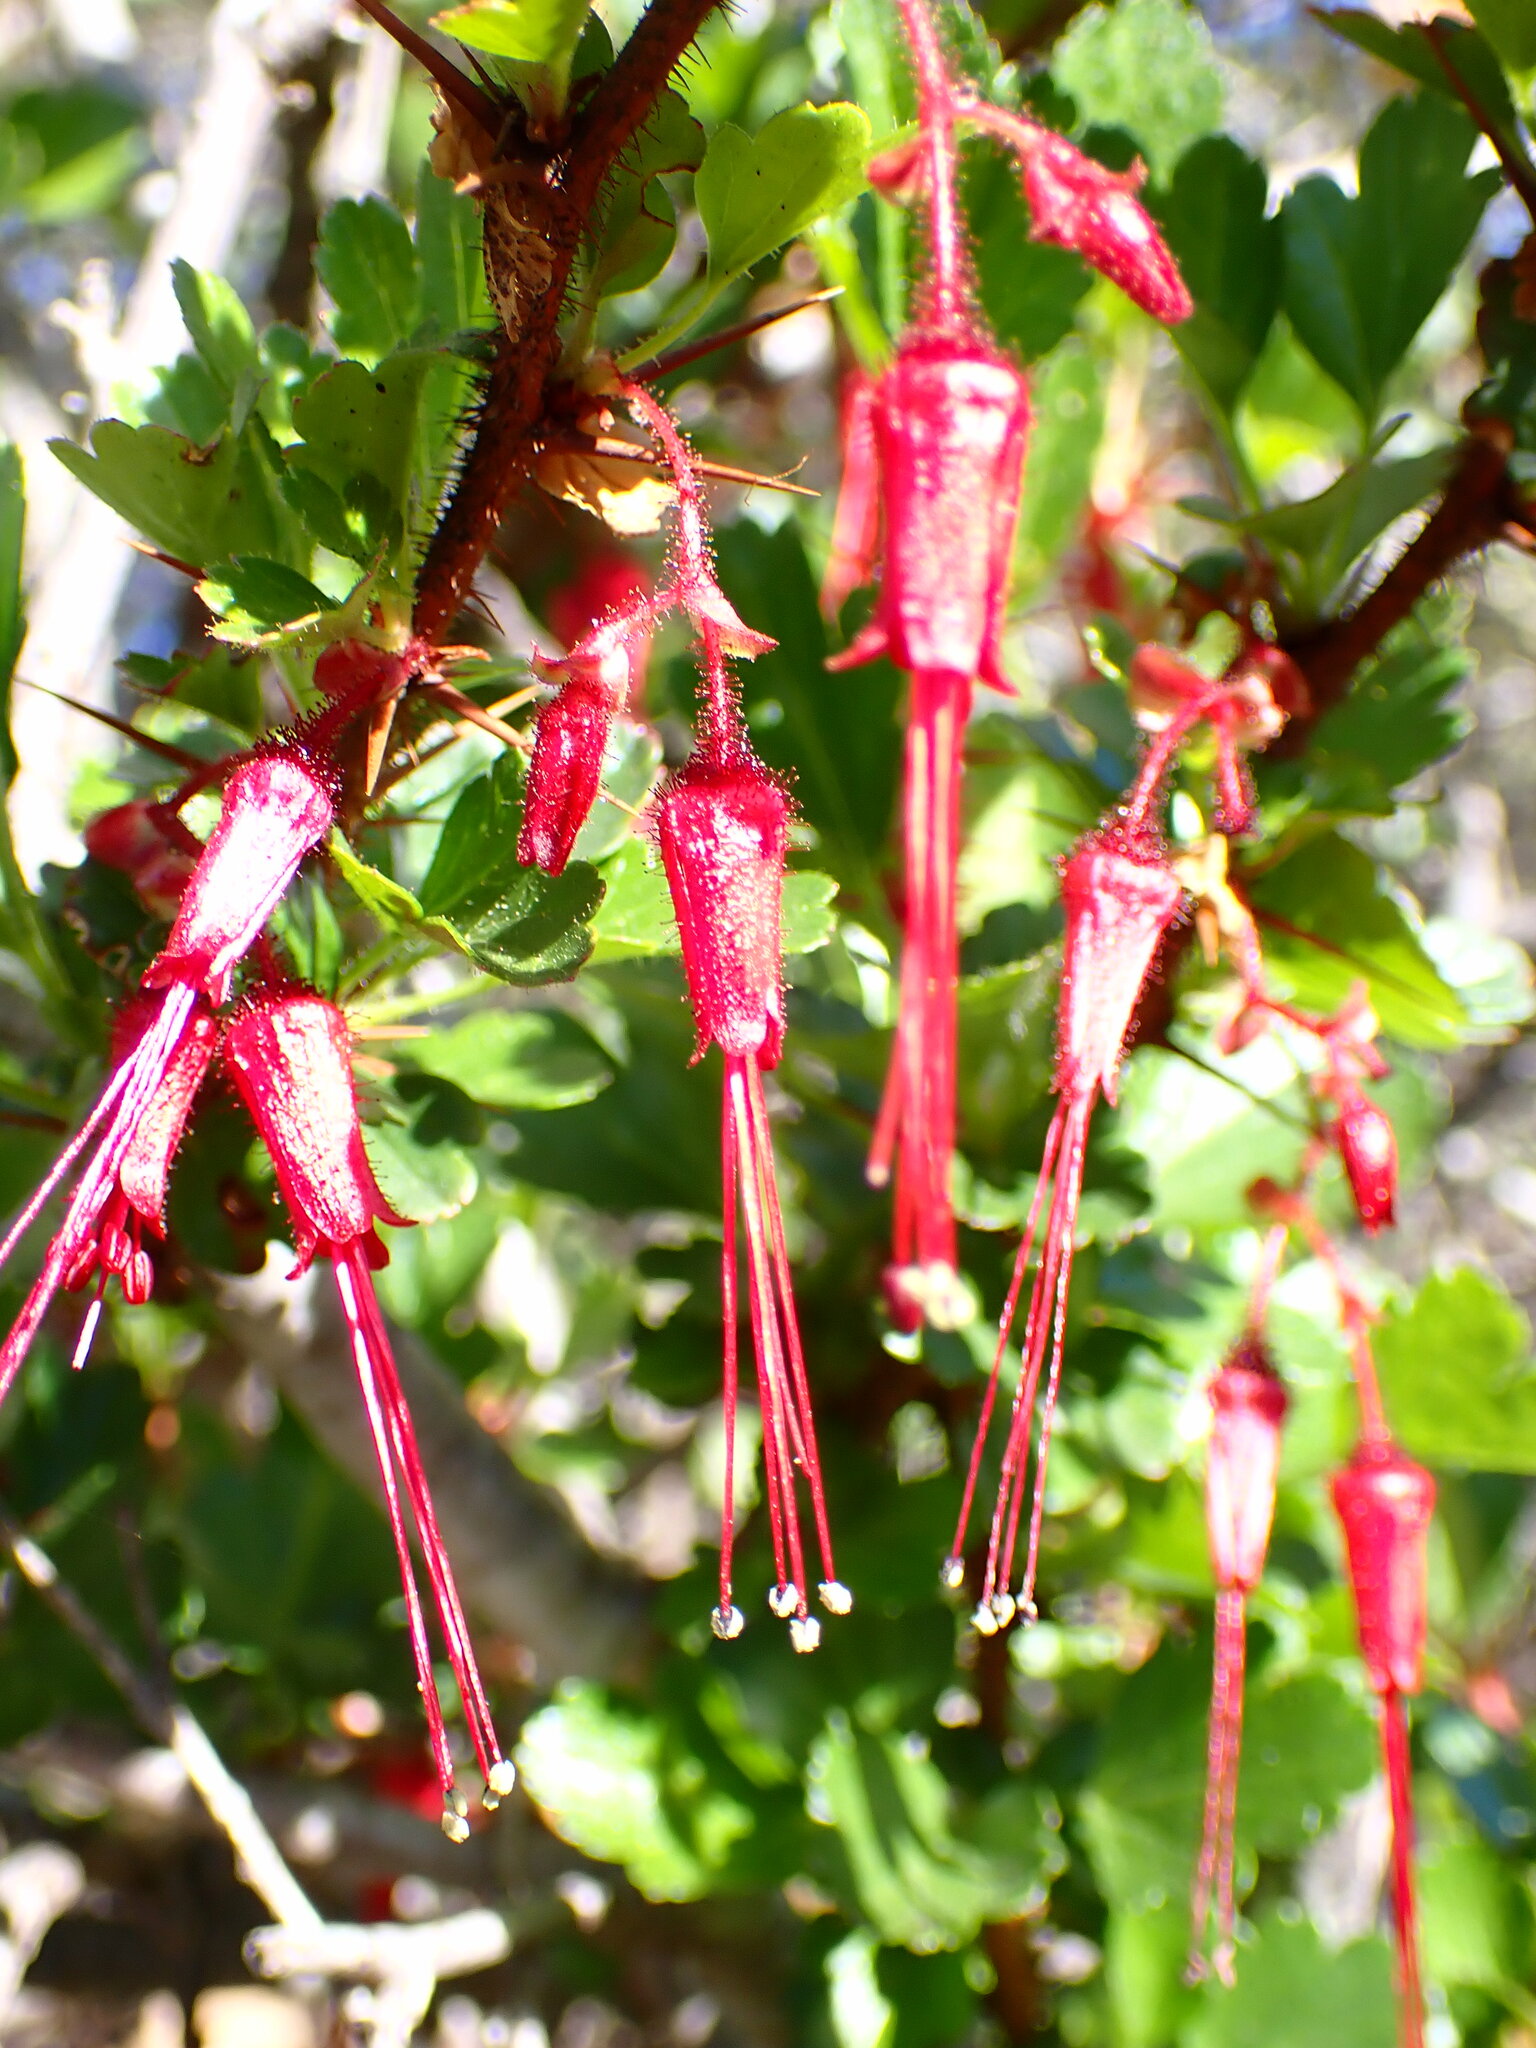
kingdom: Plantae
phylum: Tracheophyta
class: Magnoliopsida
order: Saxifragales
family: Grossulariaceae
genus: Ribes
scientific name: Ribes speciosum
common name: Fuchsia-flower gooseberry
